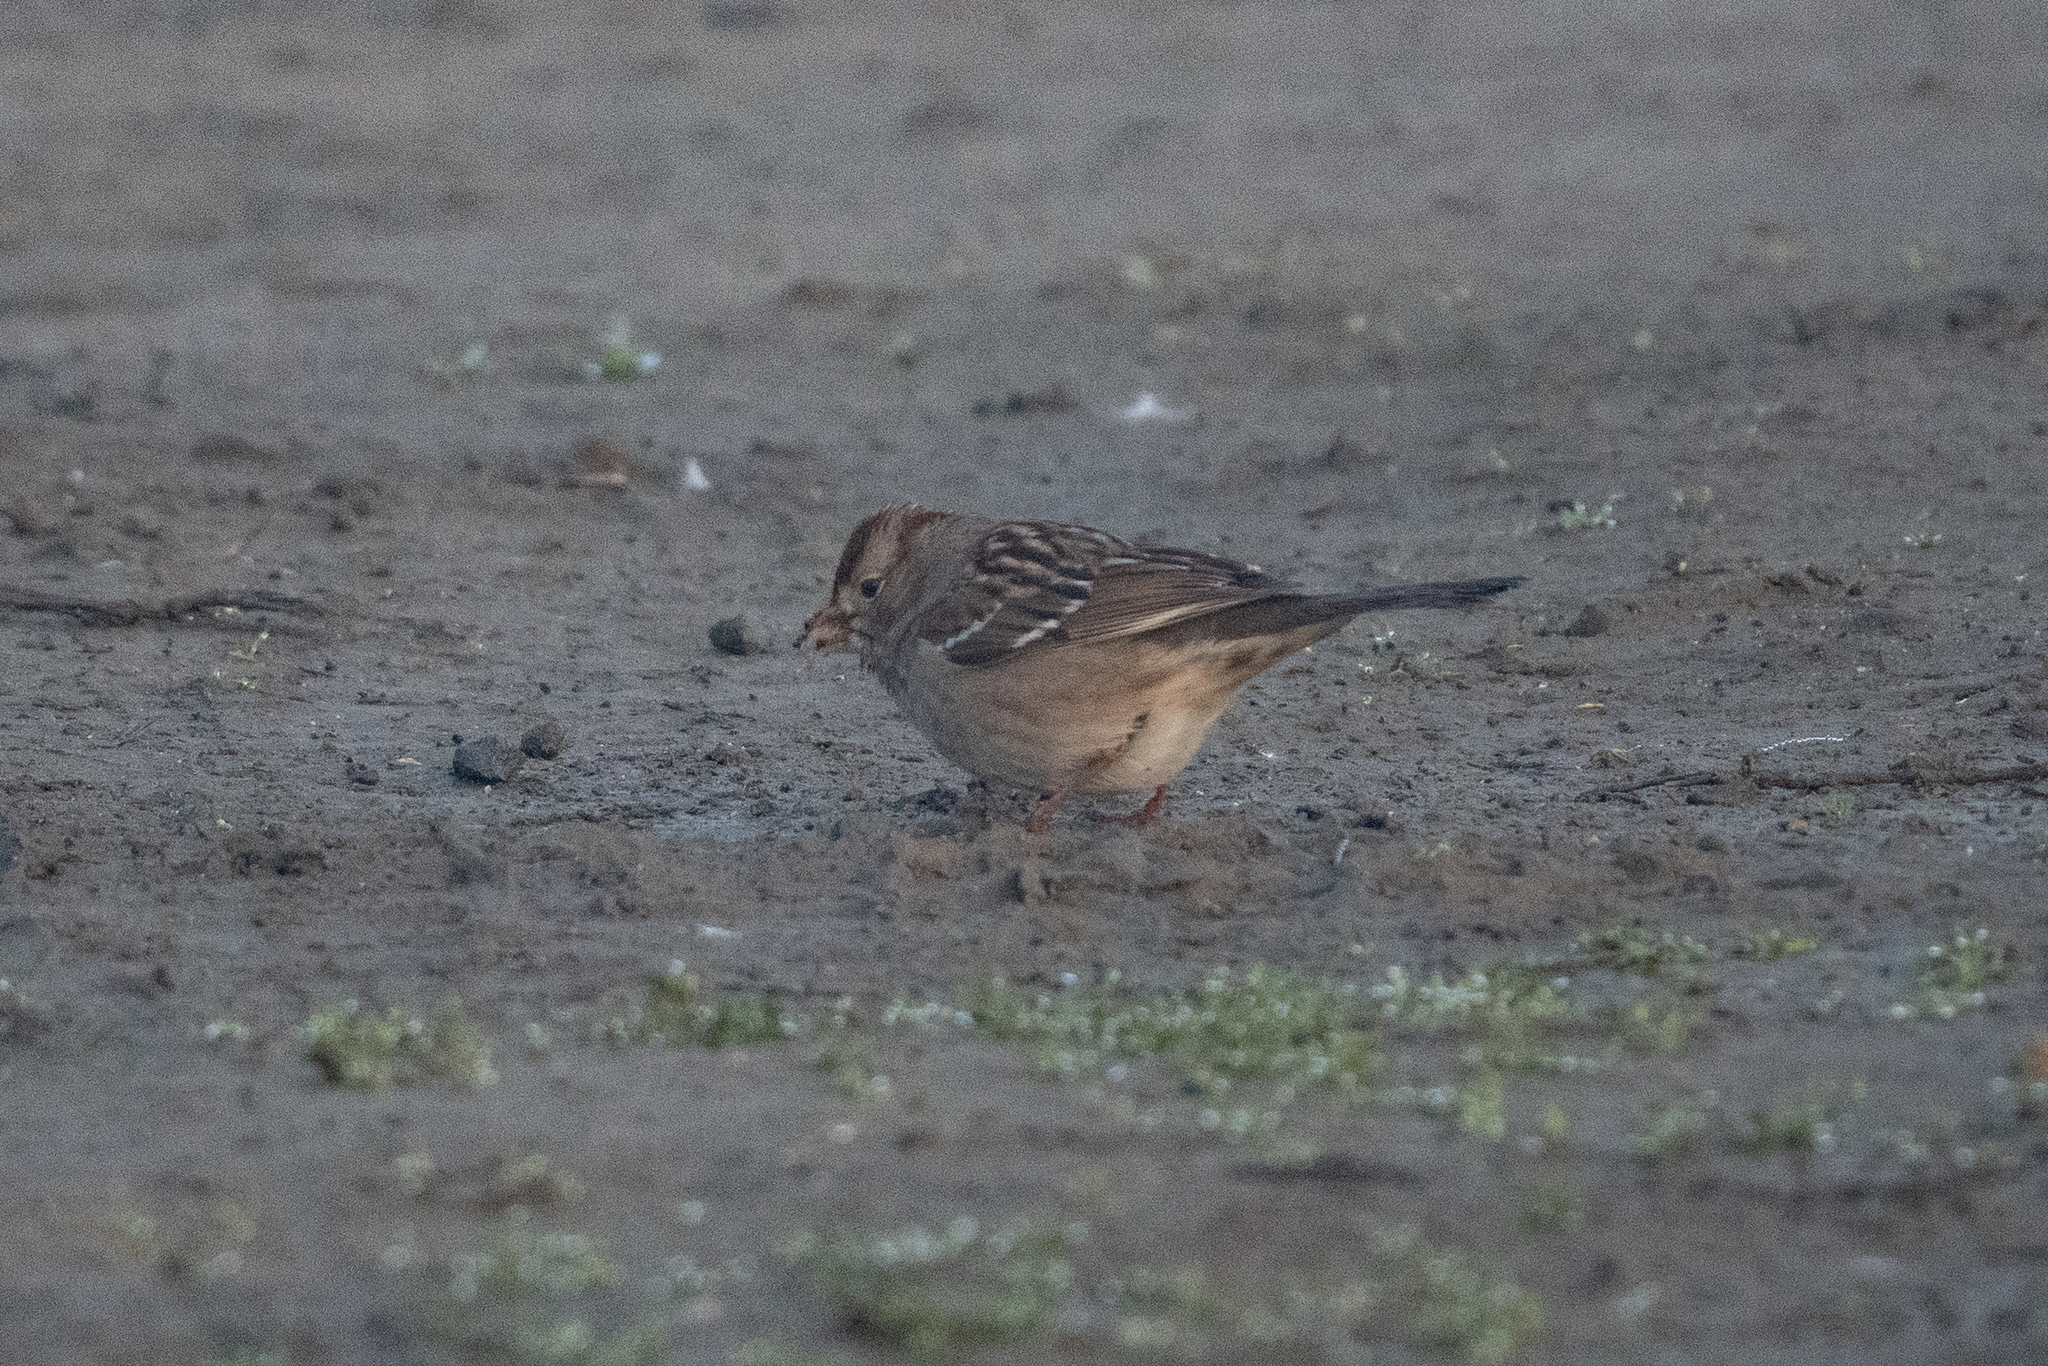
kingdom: Animalia
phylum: Chordata
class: Aves
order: Passeriformes
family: Passerellidae
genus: Zonotrichia
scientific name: Zonotrichia leucophrys
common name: White-crowned sparrow
